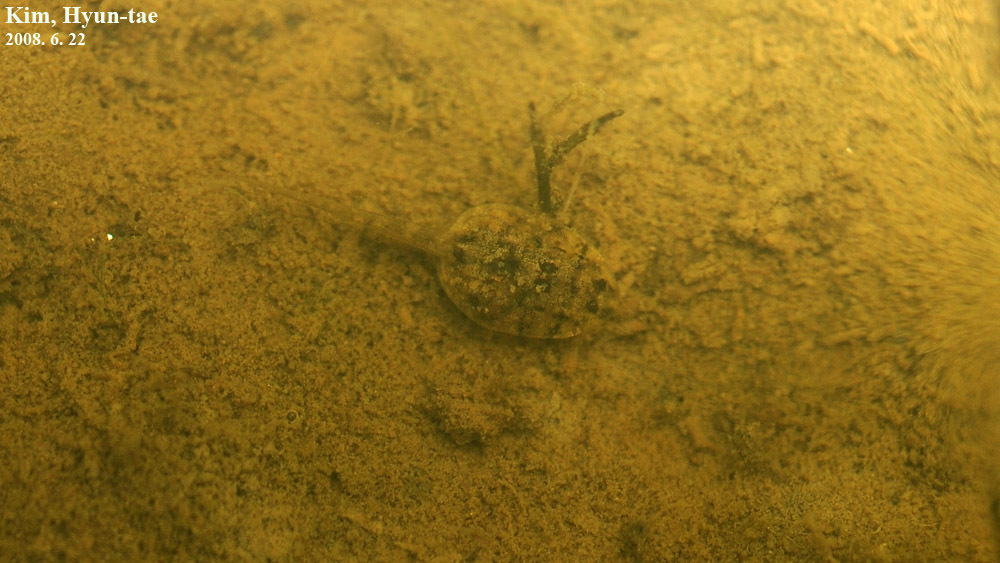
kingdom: Animalia
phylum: Chordata
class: Amphibia
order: Anura
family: Ranidae
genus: Glandirana
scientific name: Glandirana emeljanovi
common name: Northeast china rough-skinned frog
